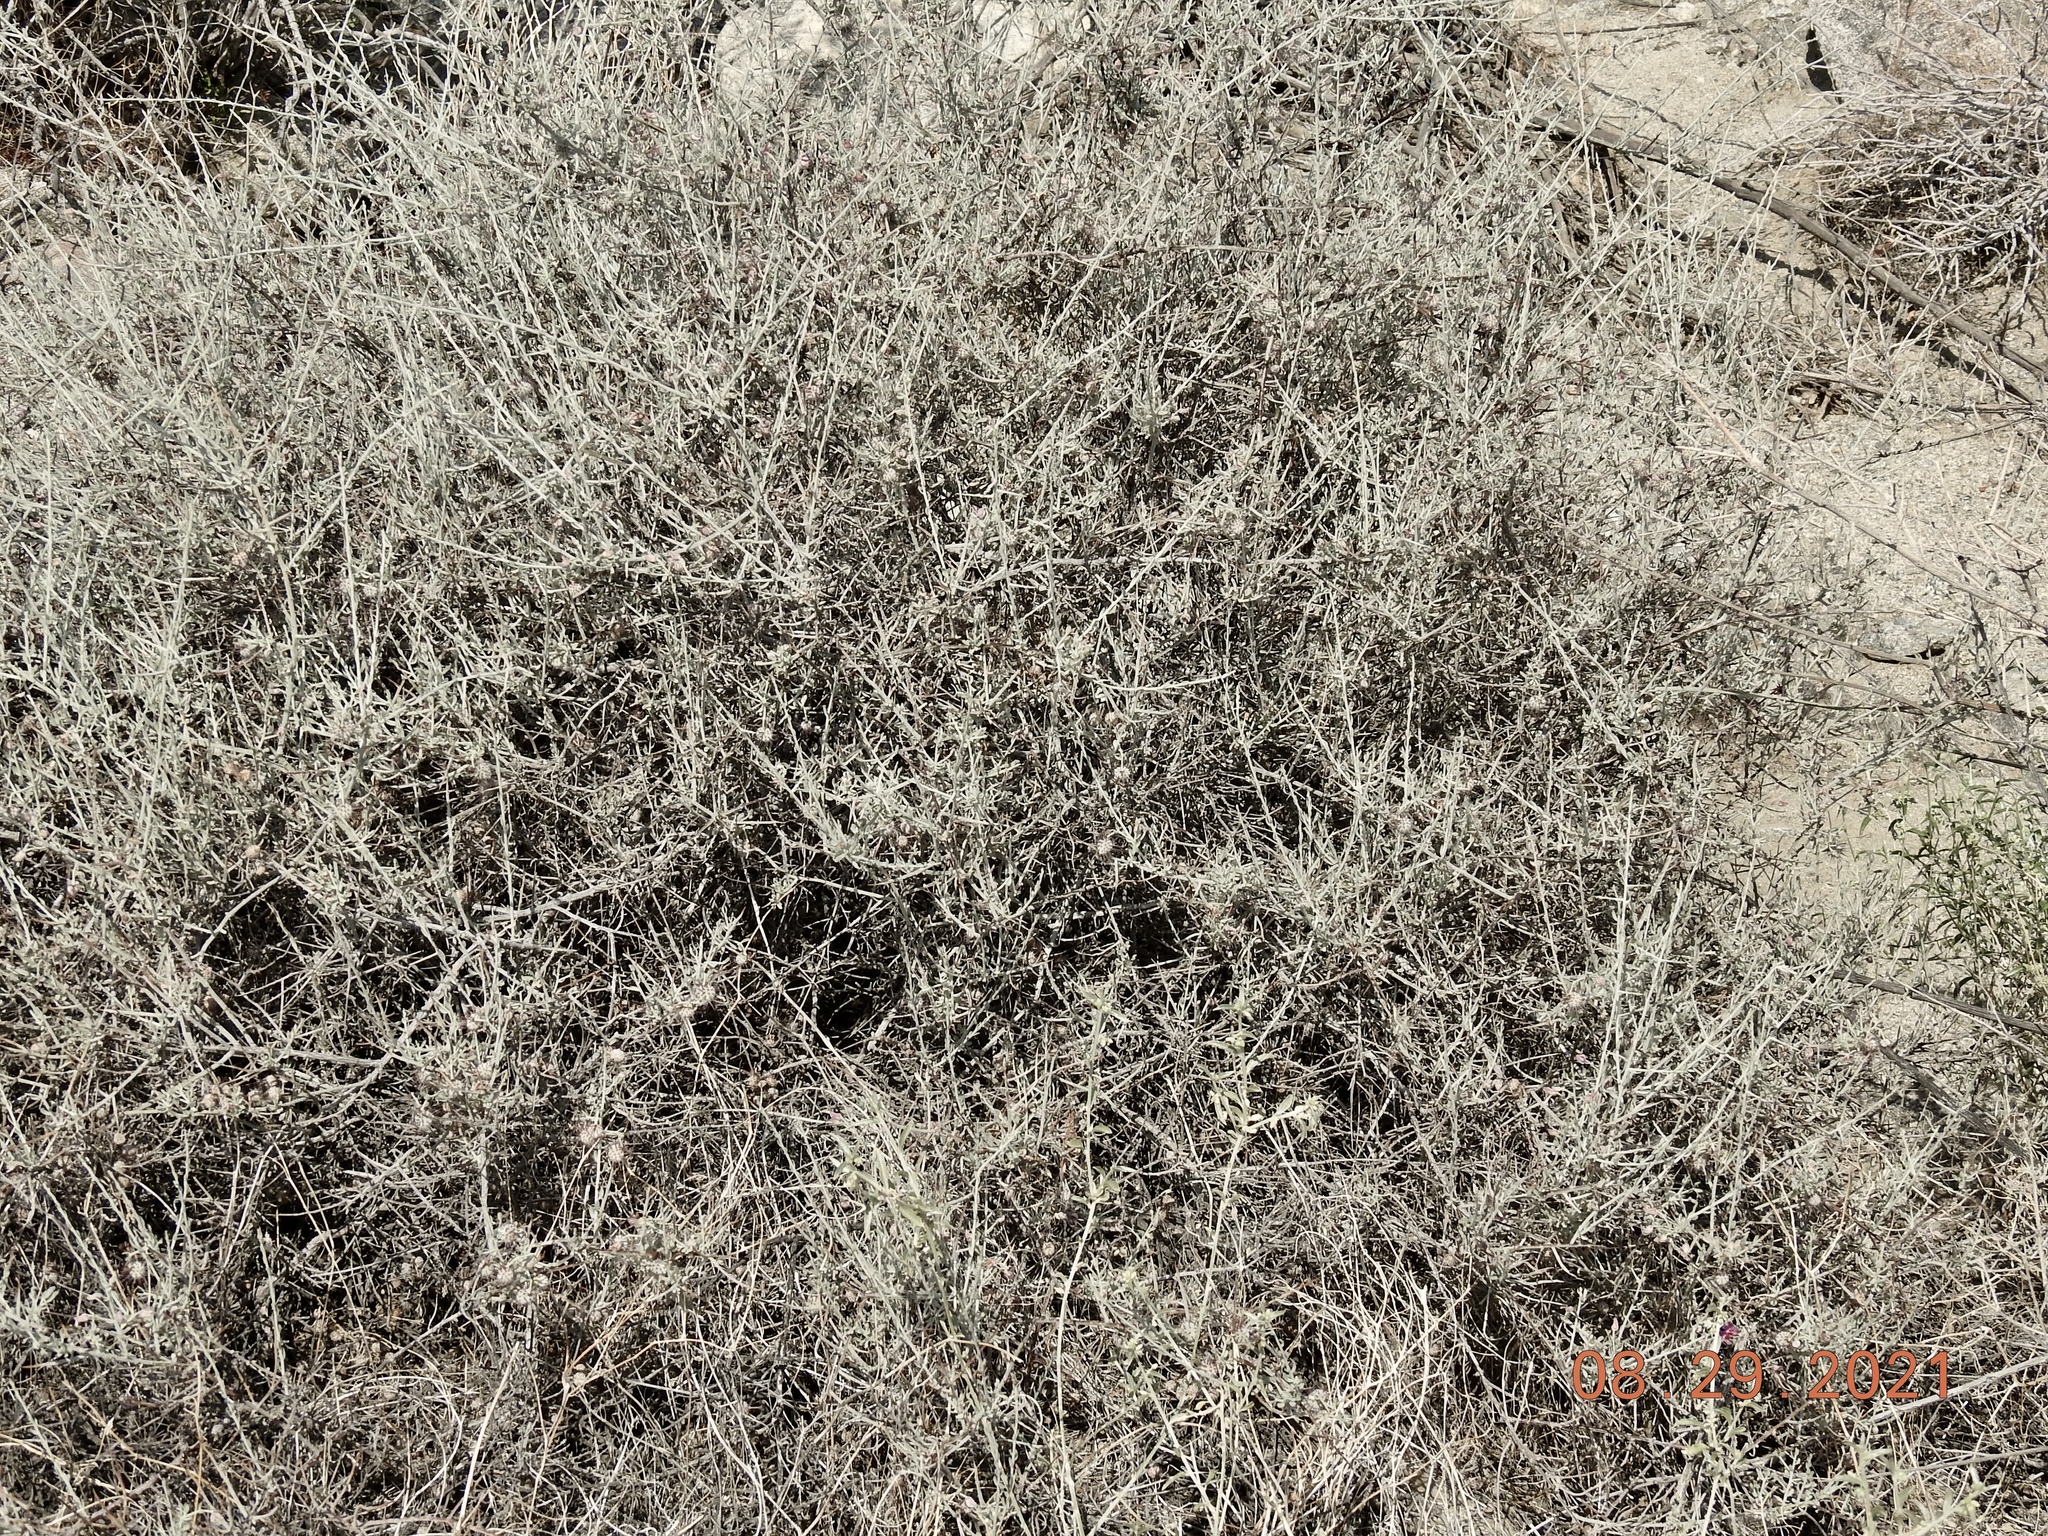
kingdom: Plantae
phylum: Tracheophyta
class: Magnoliopsida
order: Zygophyllales
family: Krameriaceae
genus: Krameria
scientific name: Krameria bicolor
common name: White ratany
